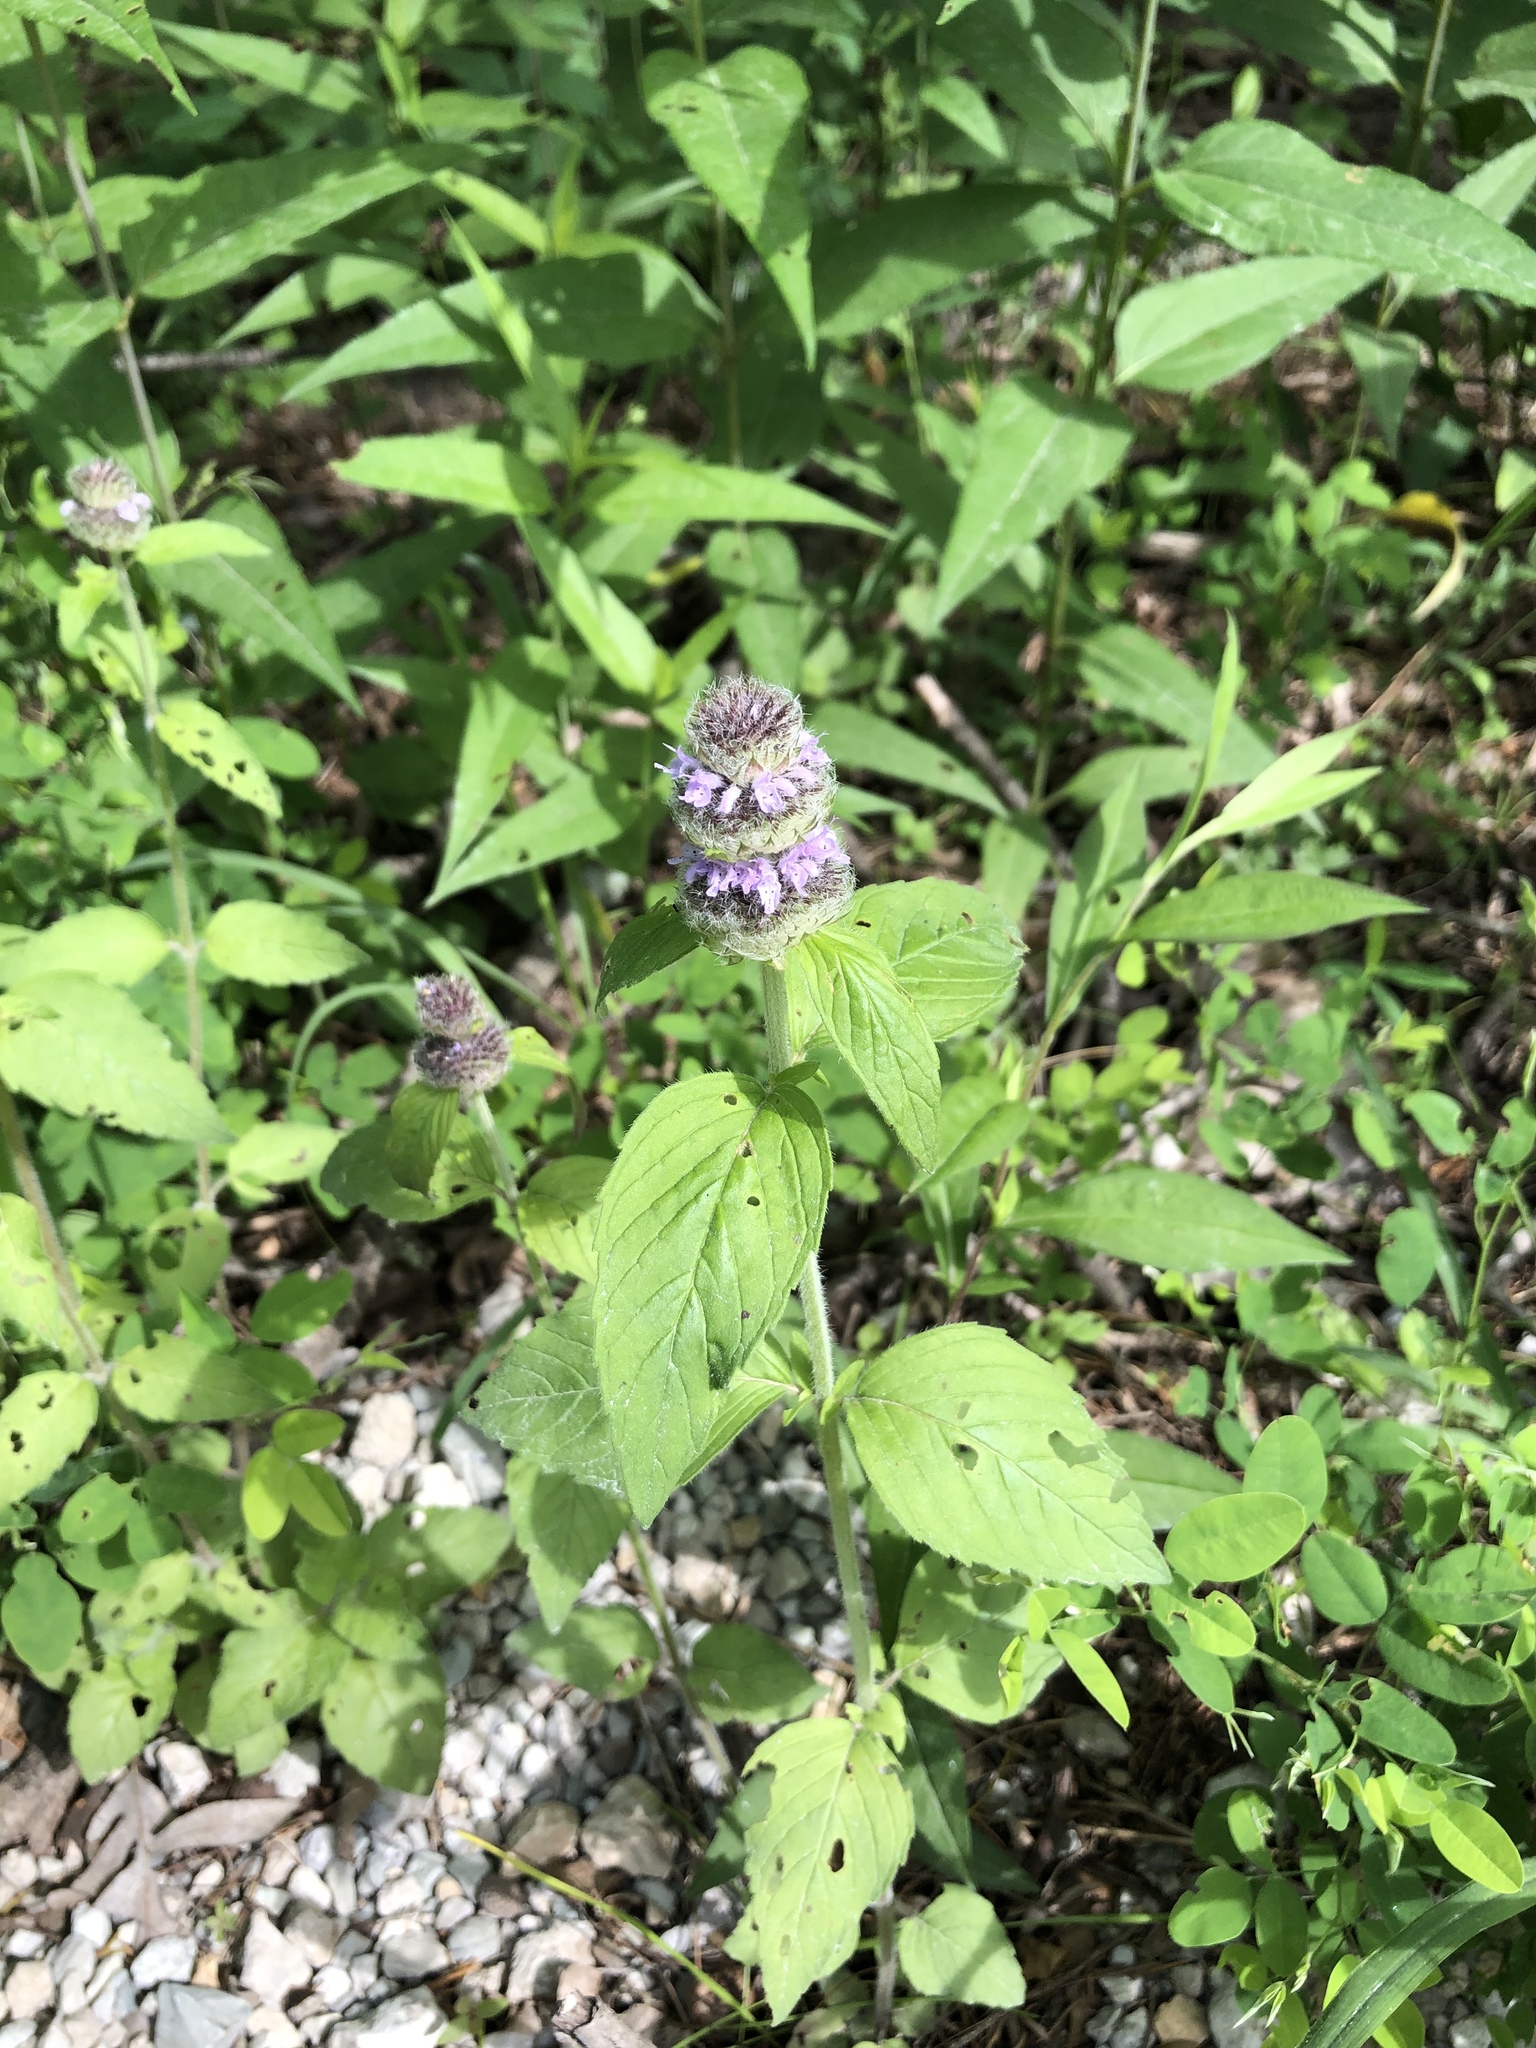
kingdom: Plantae
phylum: Tracheophyta
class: Magnoliopsida
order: Lamiales
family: Lamiaceae
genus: Blephilia
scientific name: Blephilia ciliata
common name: Downy blephilia
